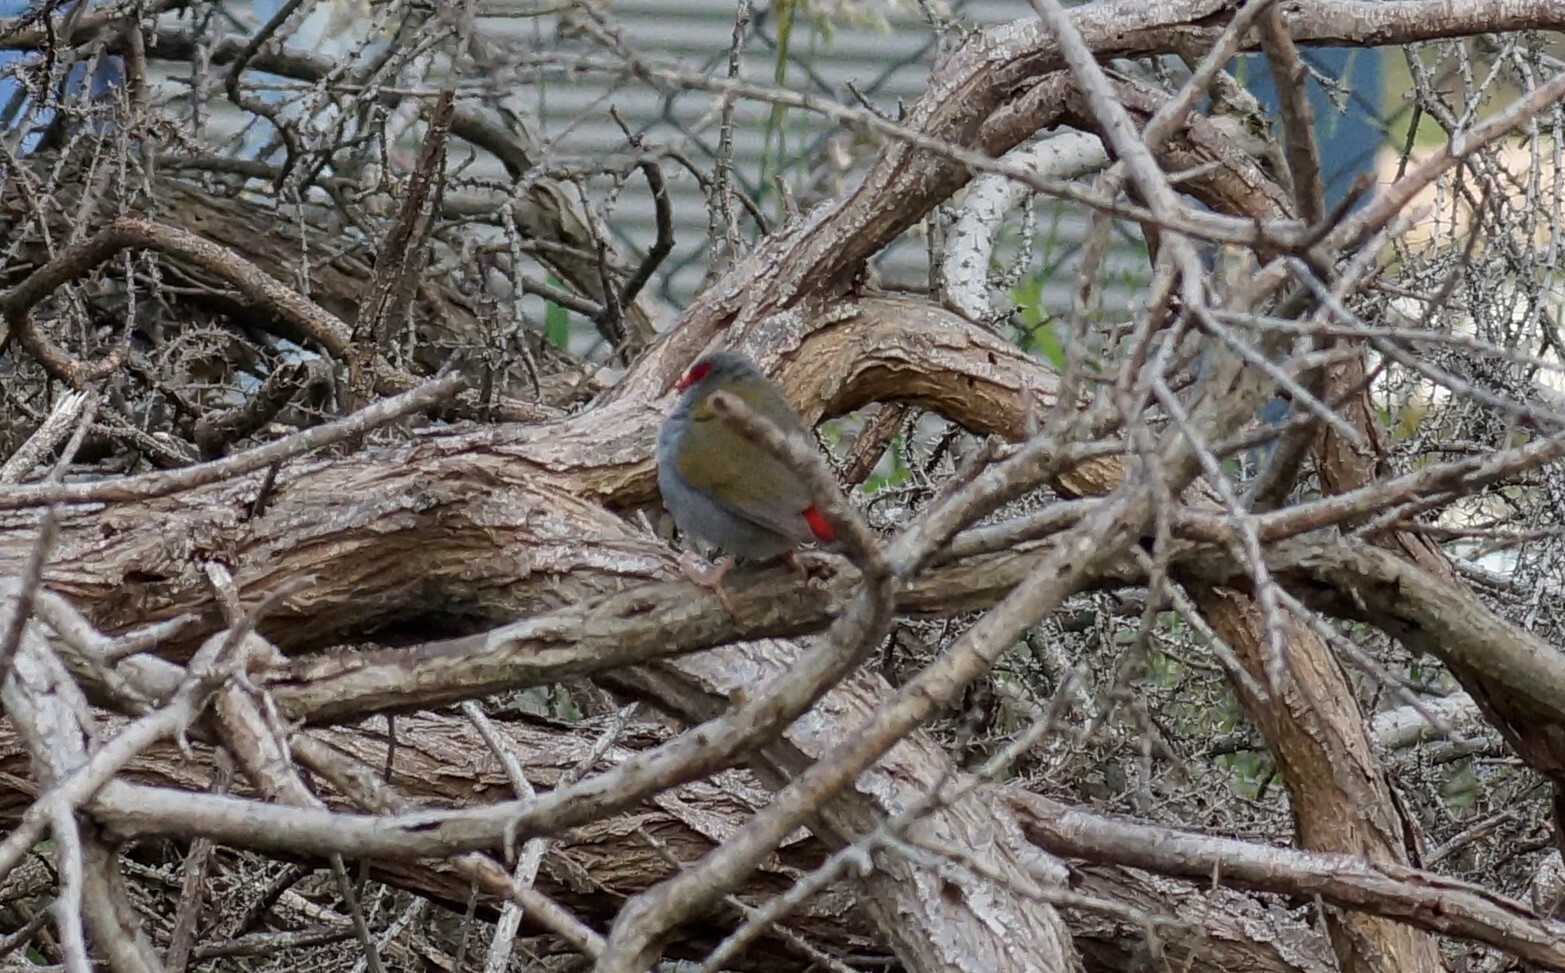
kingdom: Animalia
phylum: Chordata
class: Aves
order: Passeriformes
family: Estrildidae
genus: Neochmia
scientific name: Neochmia temporalis
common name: Red-browed finch
